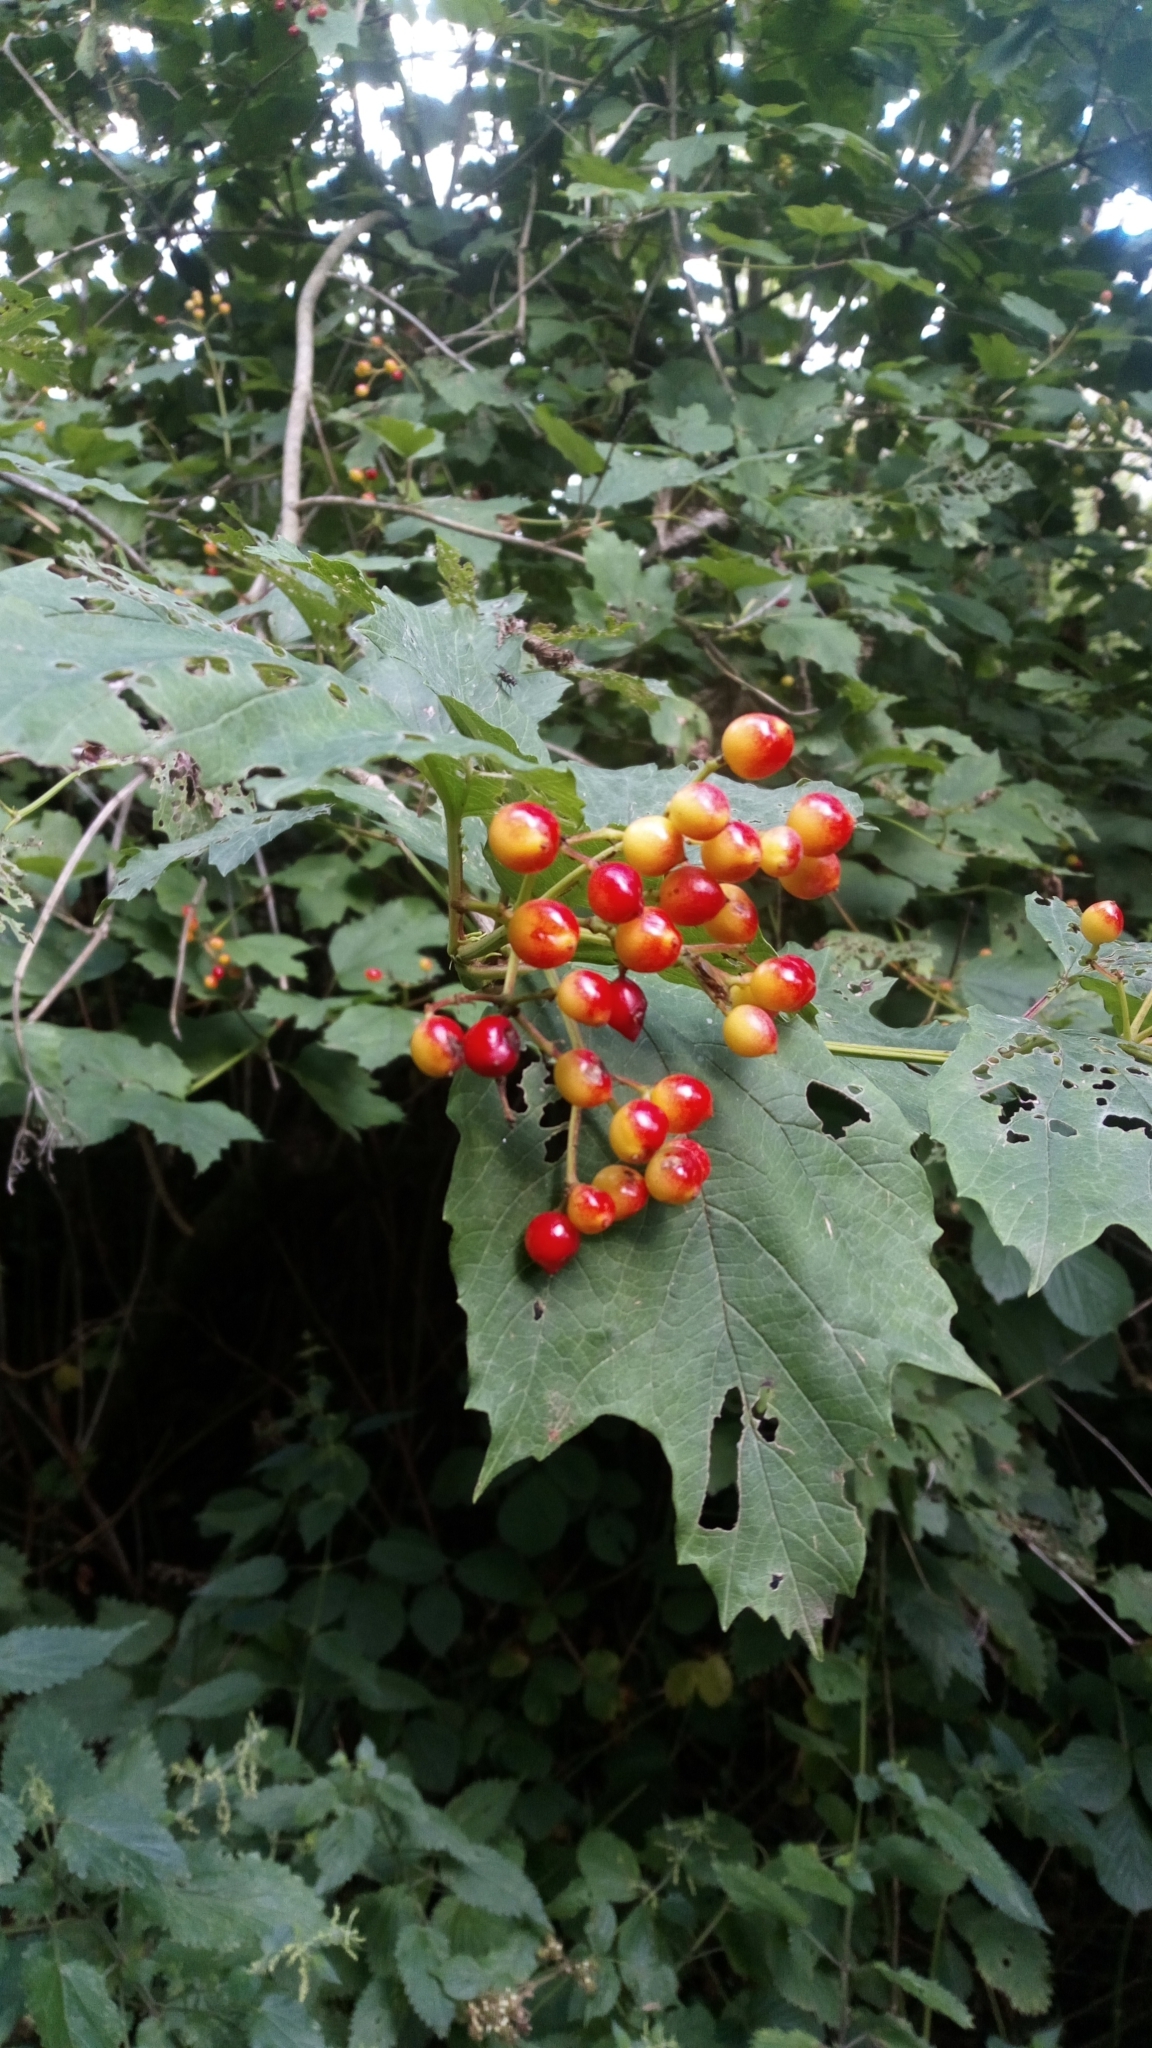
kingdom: Plantae
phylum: Tracheophyta
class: Magnoliopsida
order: Dipsacales
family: Viburnaceae
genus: Viburnum
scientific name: Viburnum opulus
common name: Guelder-rose
